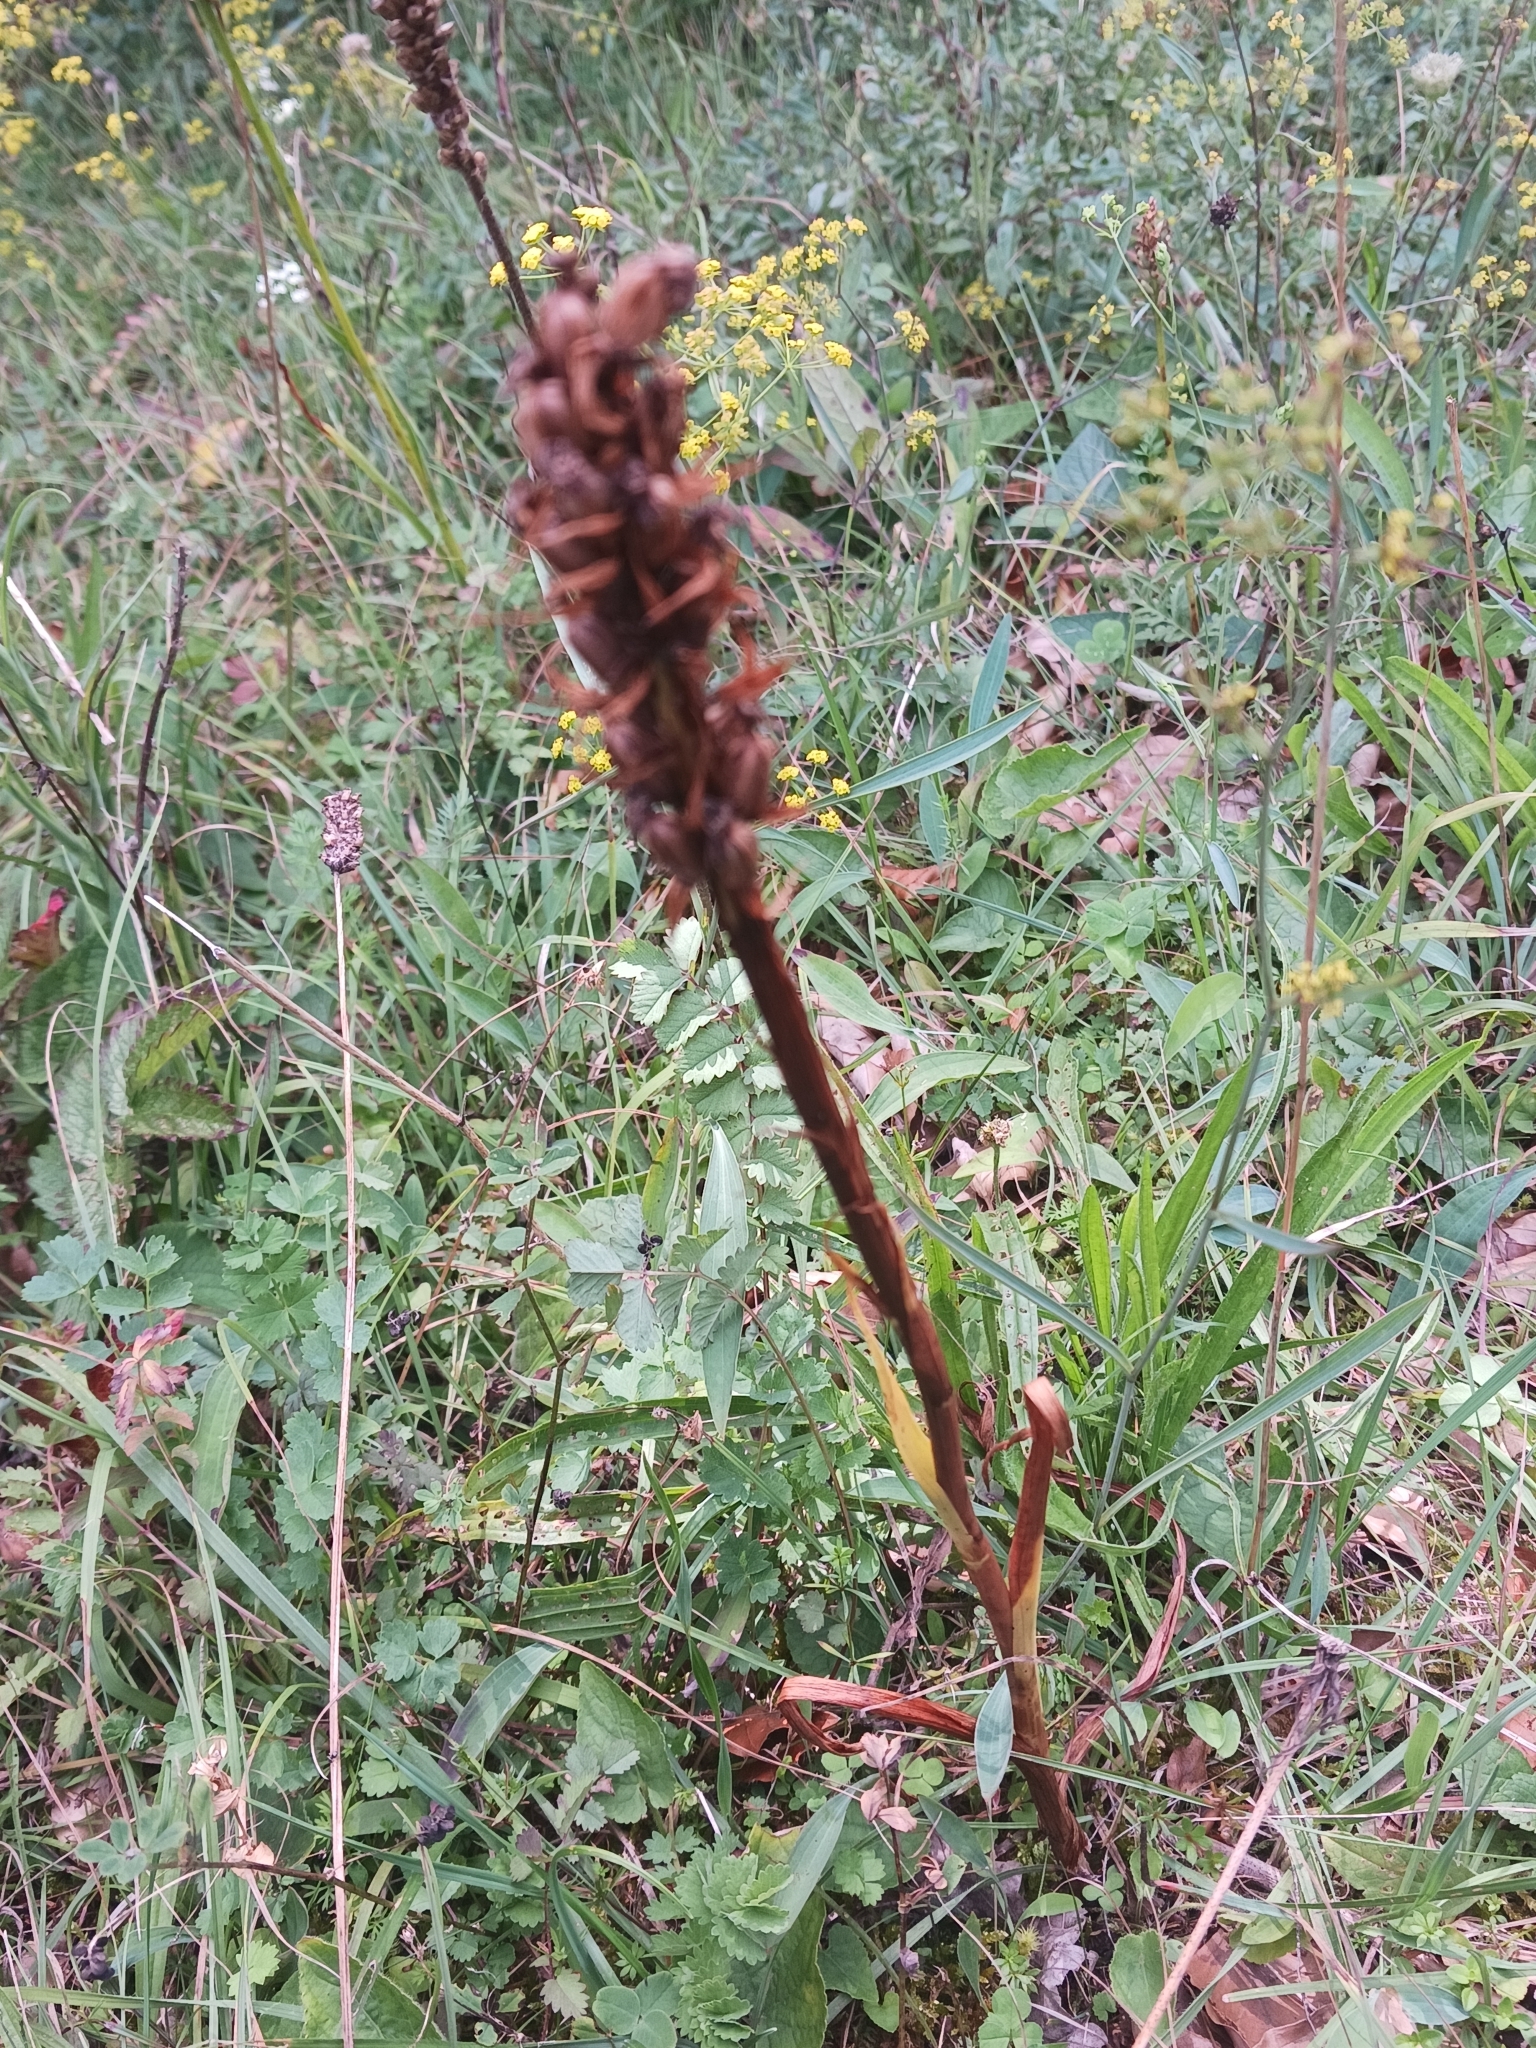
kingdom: Plantae
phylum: Tracheophyta
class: Liliopsida
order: Asparagales
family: Orchidaceae
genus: Orchis
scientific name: Orchis mascula
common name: Early-purple orchid
